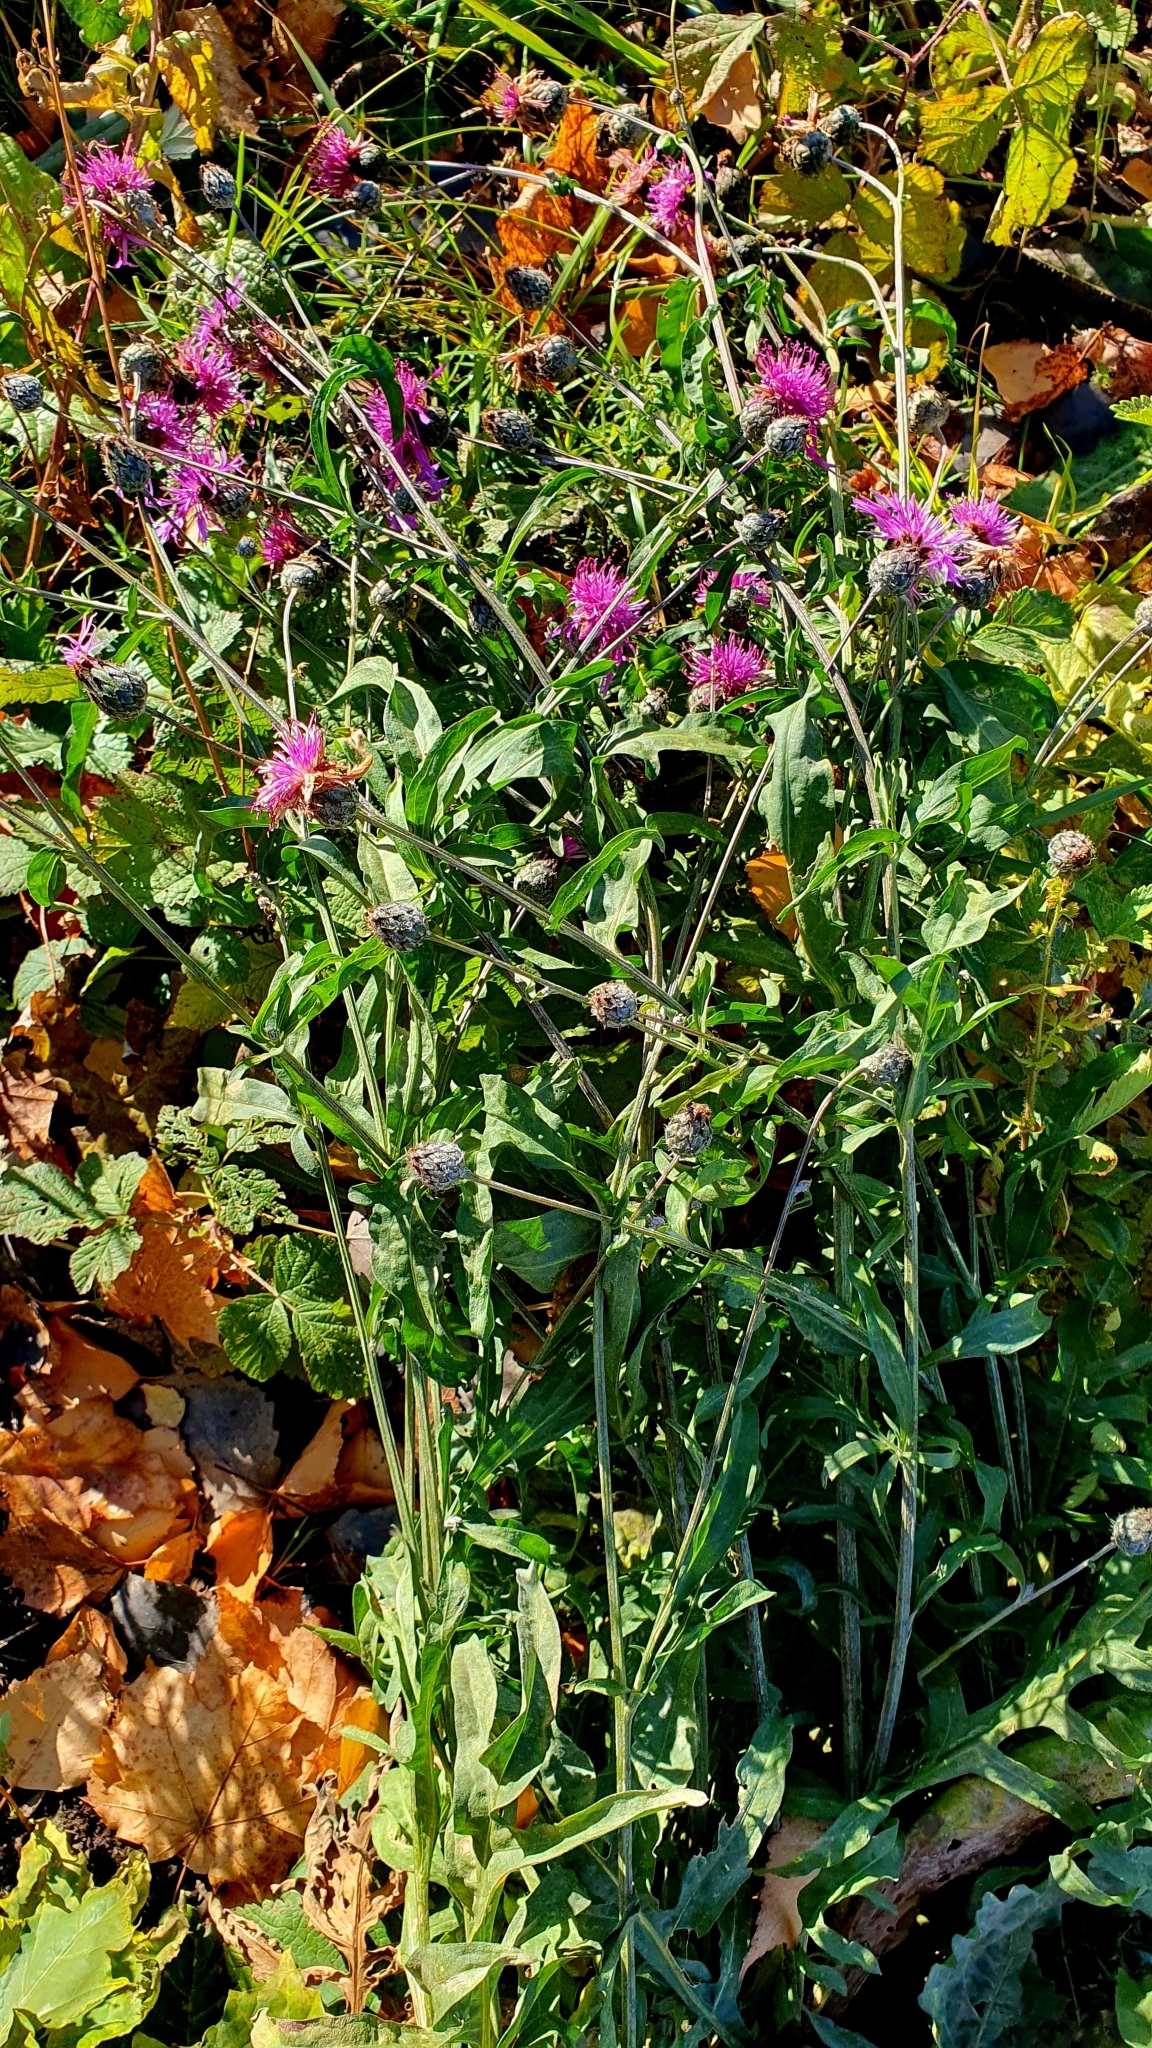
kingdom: Plantae
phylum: Tracheophyta
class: Magnoliopsida
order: Asterales
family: Asteraceae
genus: Centaurea
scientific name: Centaurea scabiosa
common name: Greater knapweed
